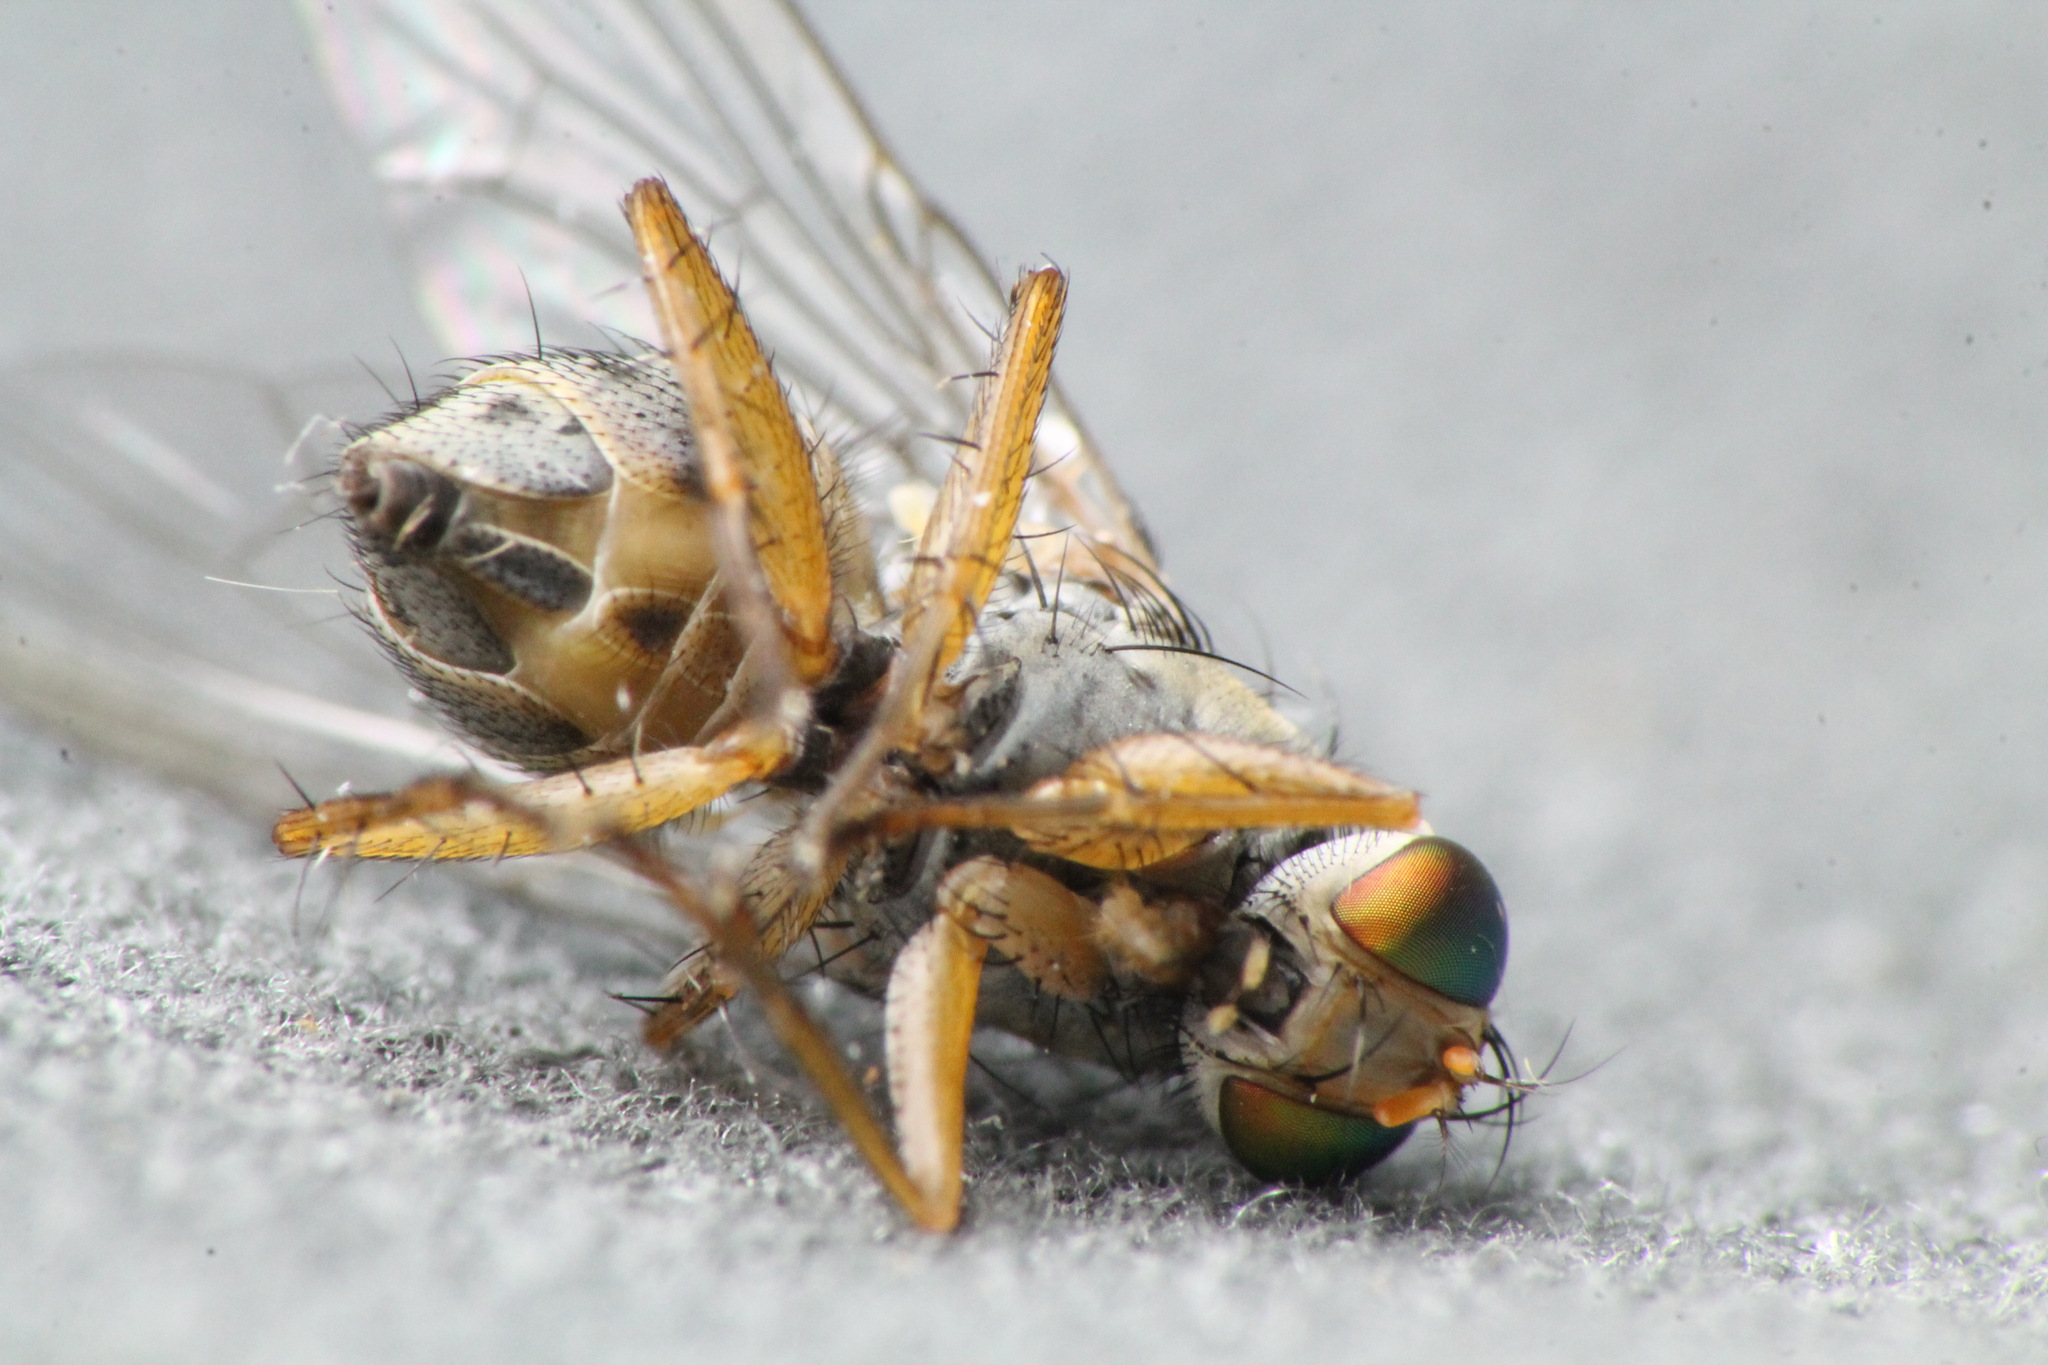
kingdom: Animalia
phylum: Arthropoda
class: Insecta
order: Diptera
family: Muscidae
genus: Pygophora
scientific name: Pygophora apicalis
